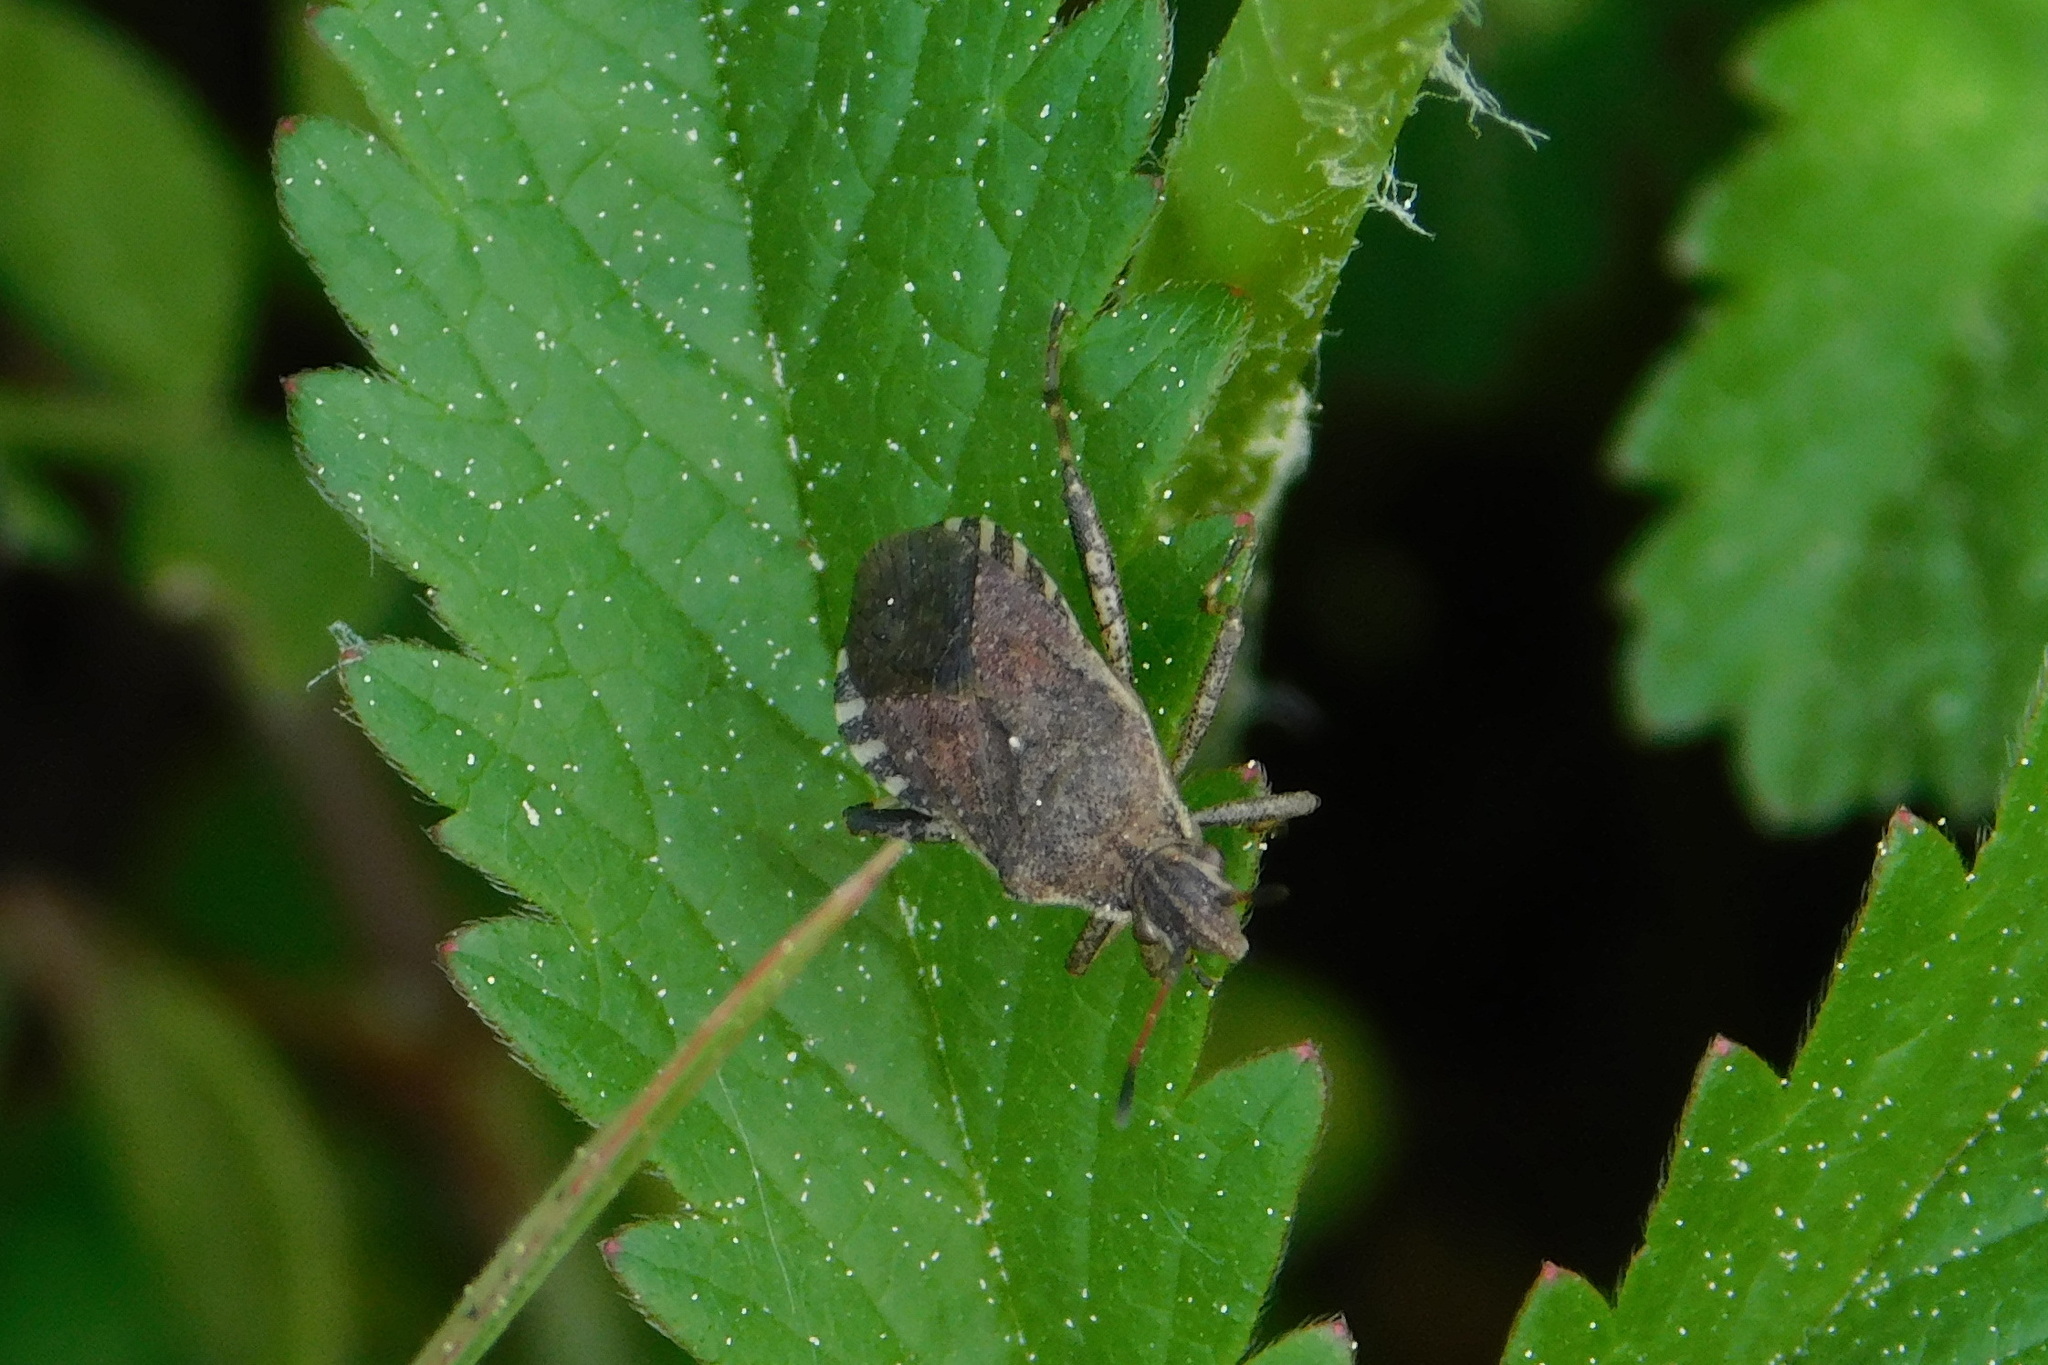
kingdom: Animalia
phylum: Arthropoda
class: Insecta
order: Hemiptera
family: Coreidae
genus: Ceraleptus
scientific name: Ceraleptus gracilicornis
